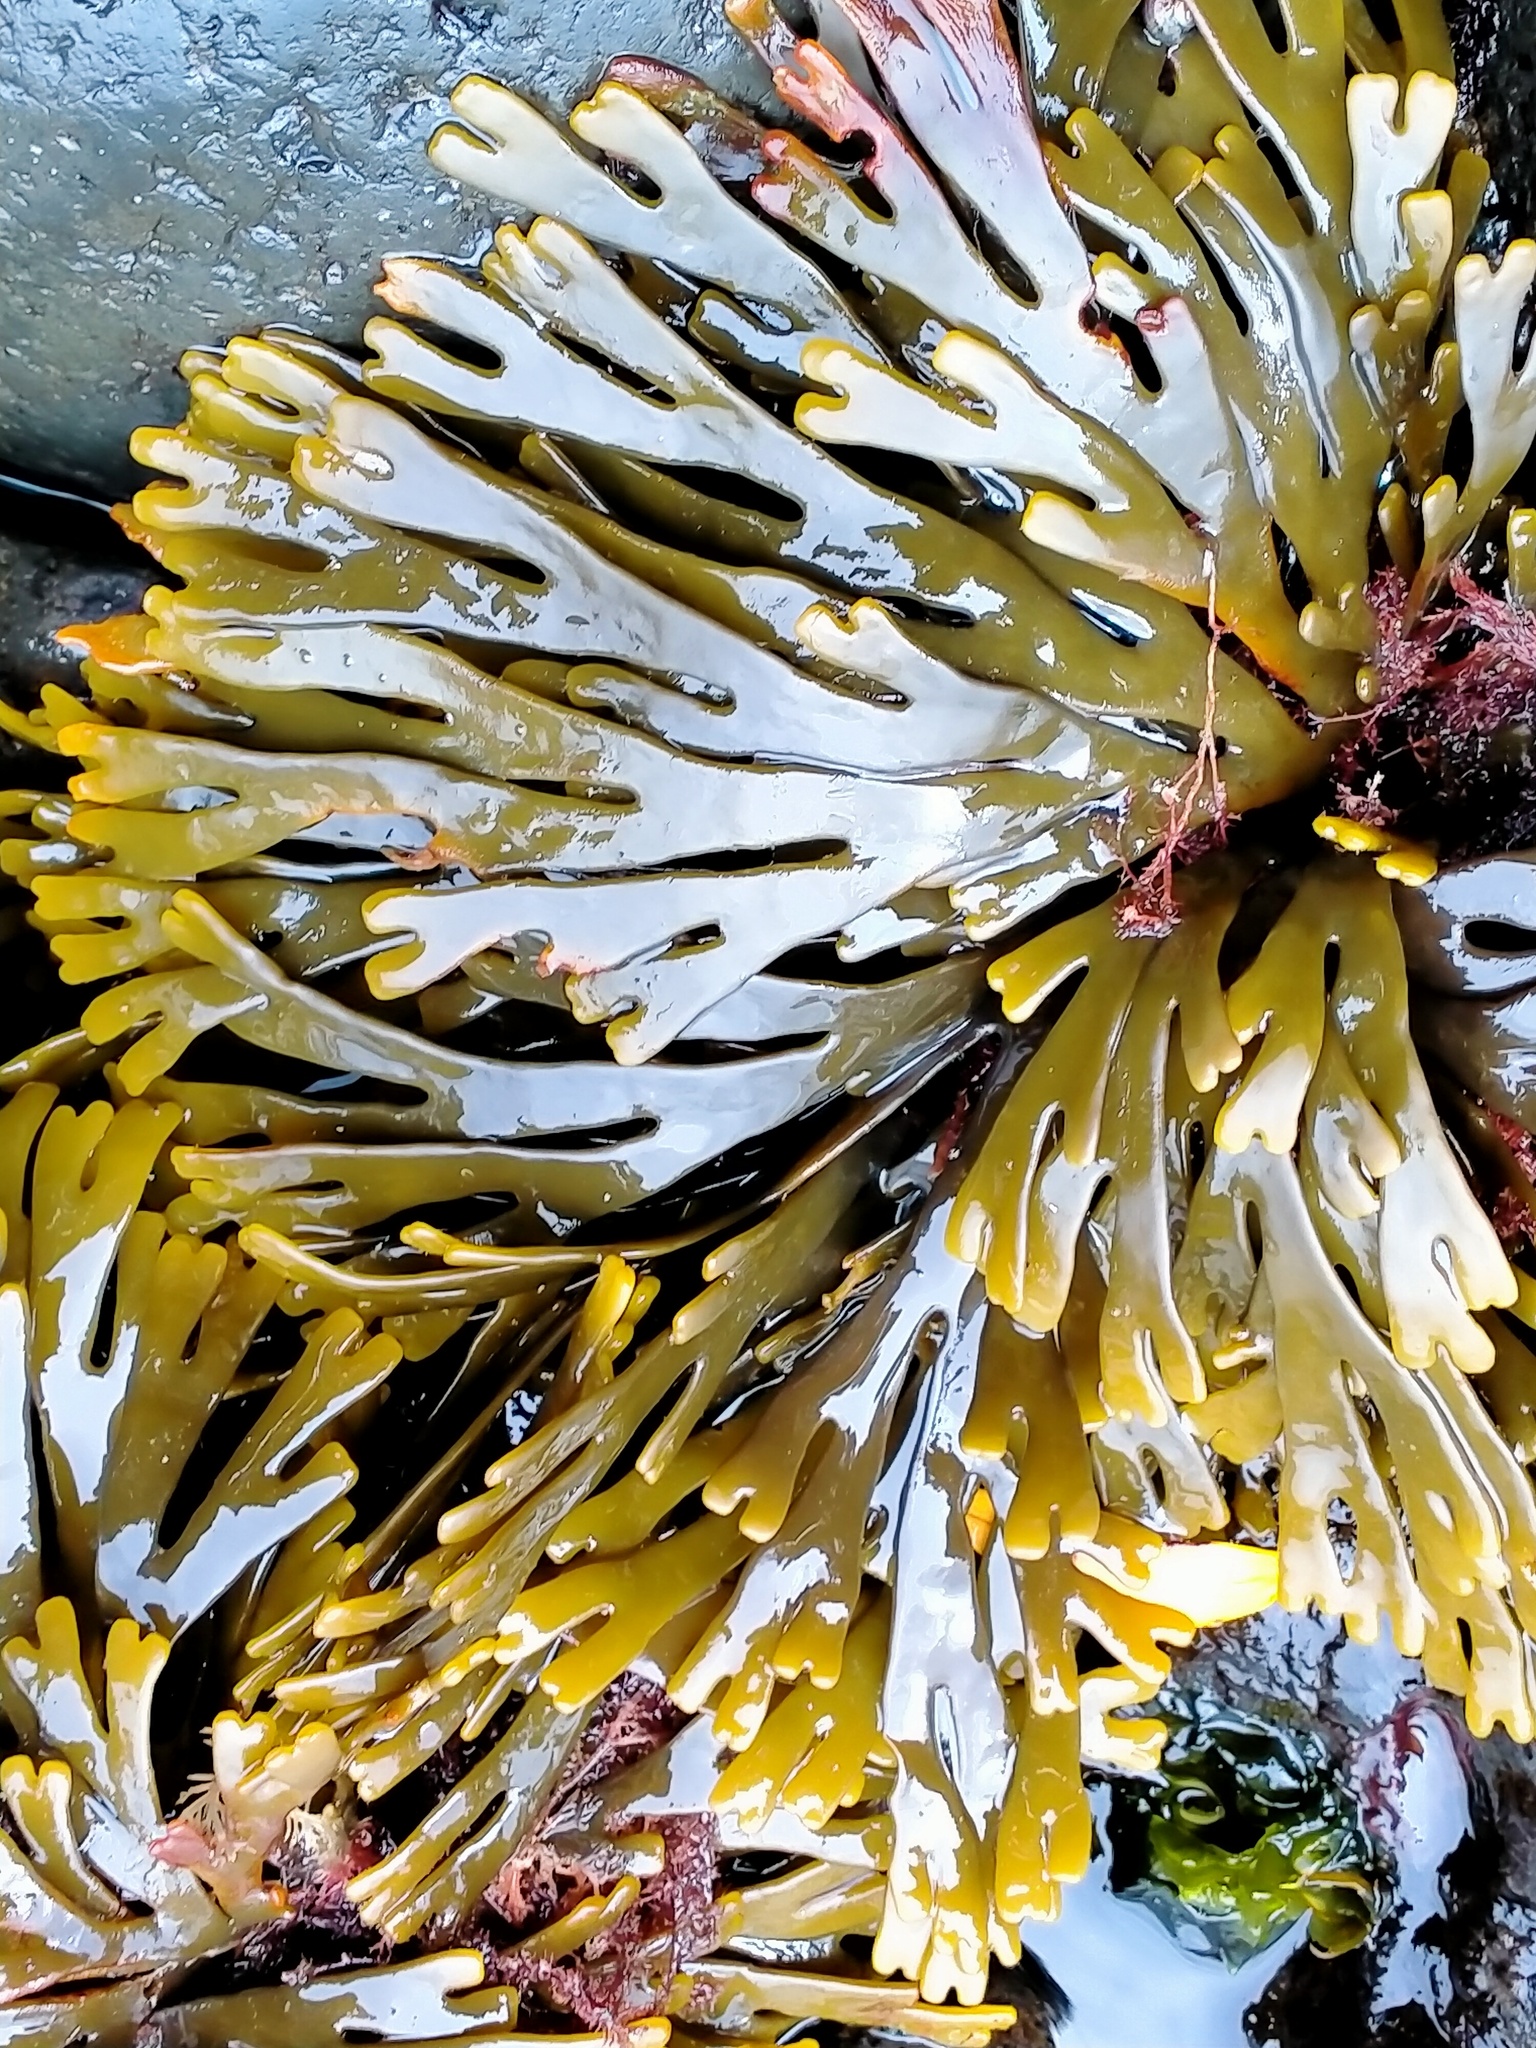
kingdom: Chromista
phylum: Ochrophyta
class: Phaeophyceae
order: Fucales
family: Xiphophoraceae
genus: Xiphophora
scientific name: Xiphophora gladiata
